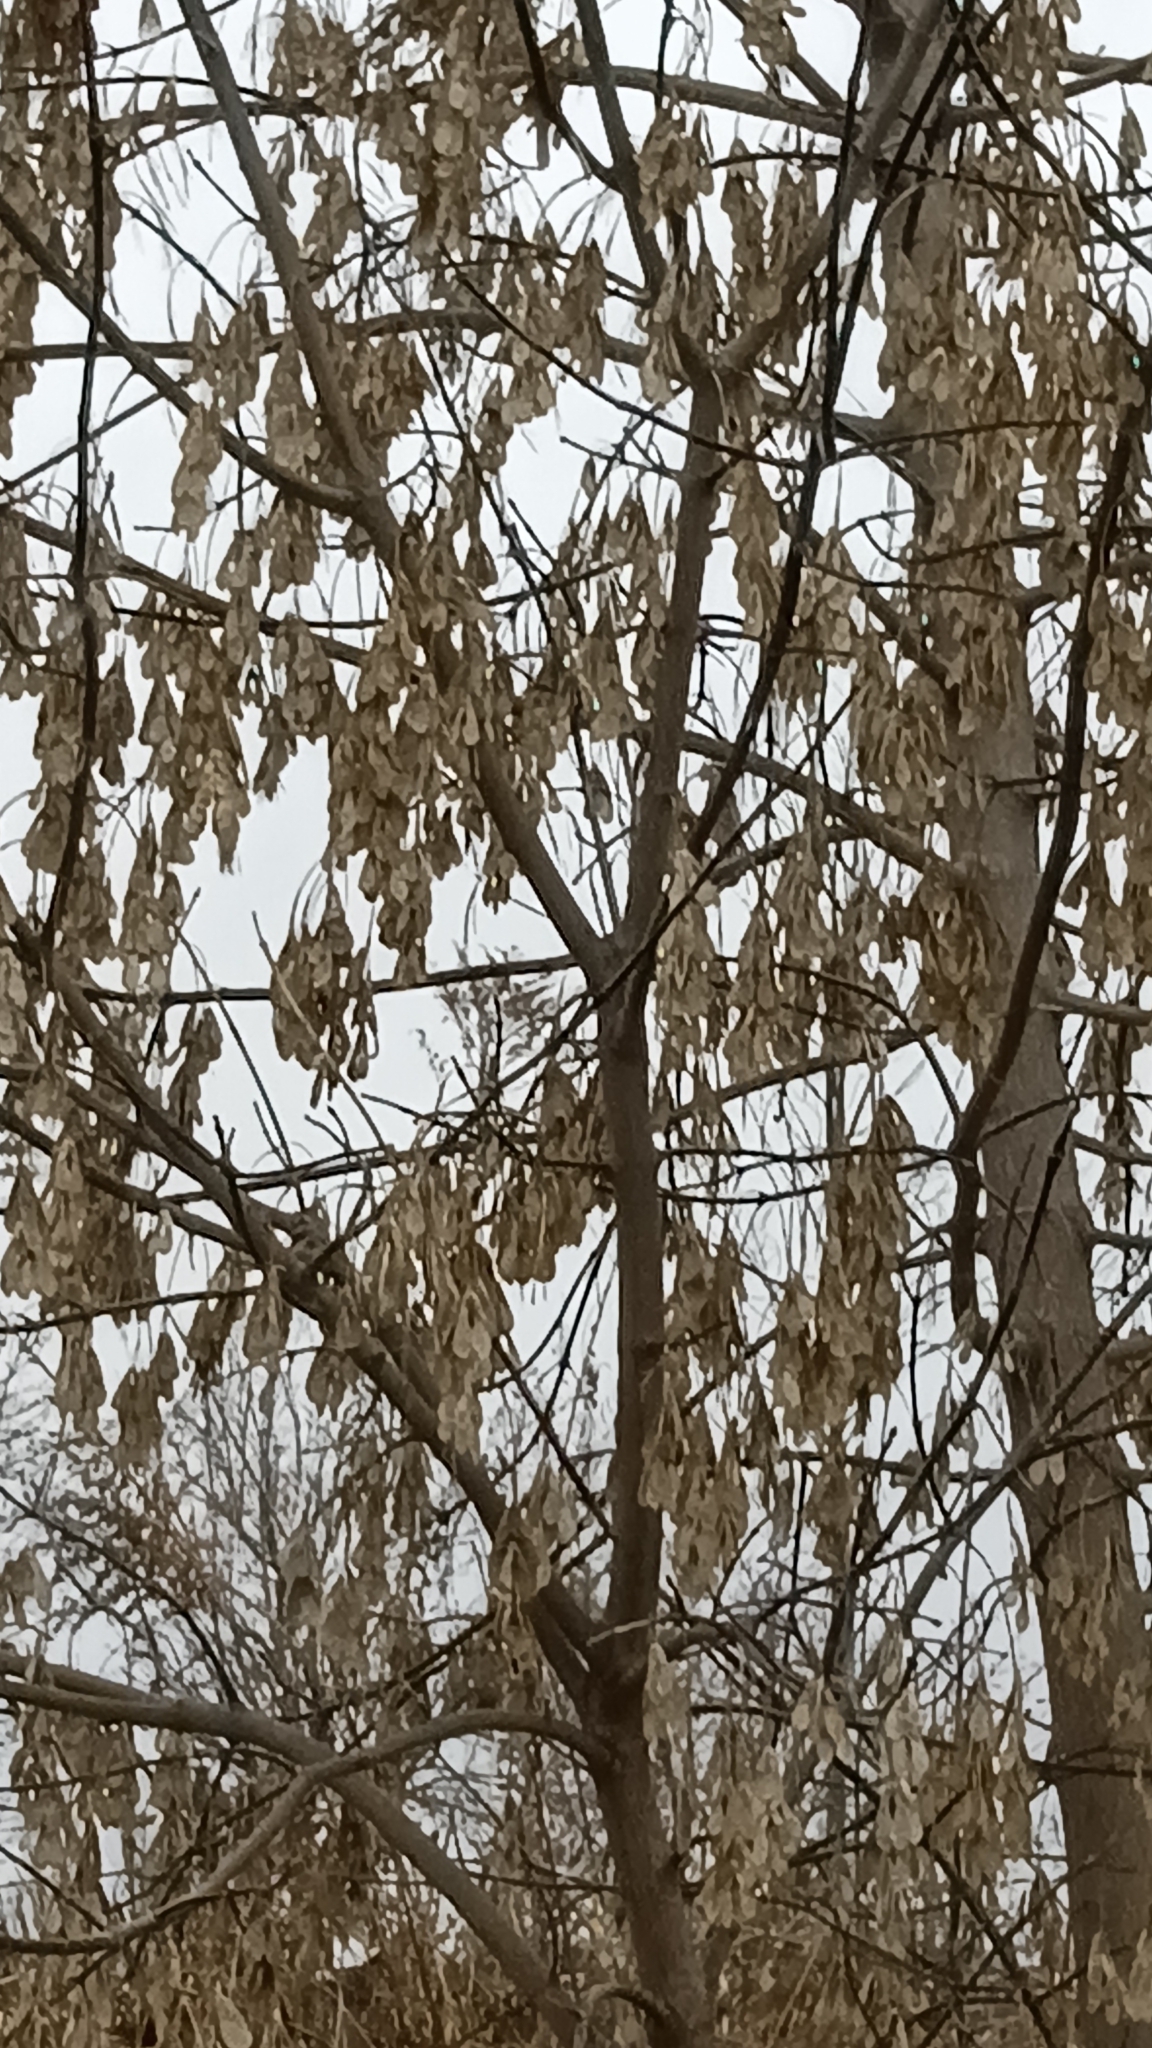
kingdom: Plantae
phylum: Tracheophyta
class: Magnoliopsida
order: Sapindales
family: Sapindaceae
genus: Acer
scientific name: Acer negundo
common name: Ashleaf maple
